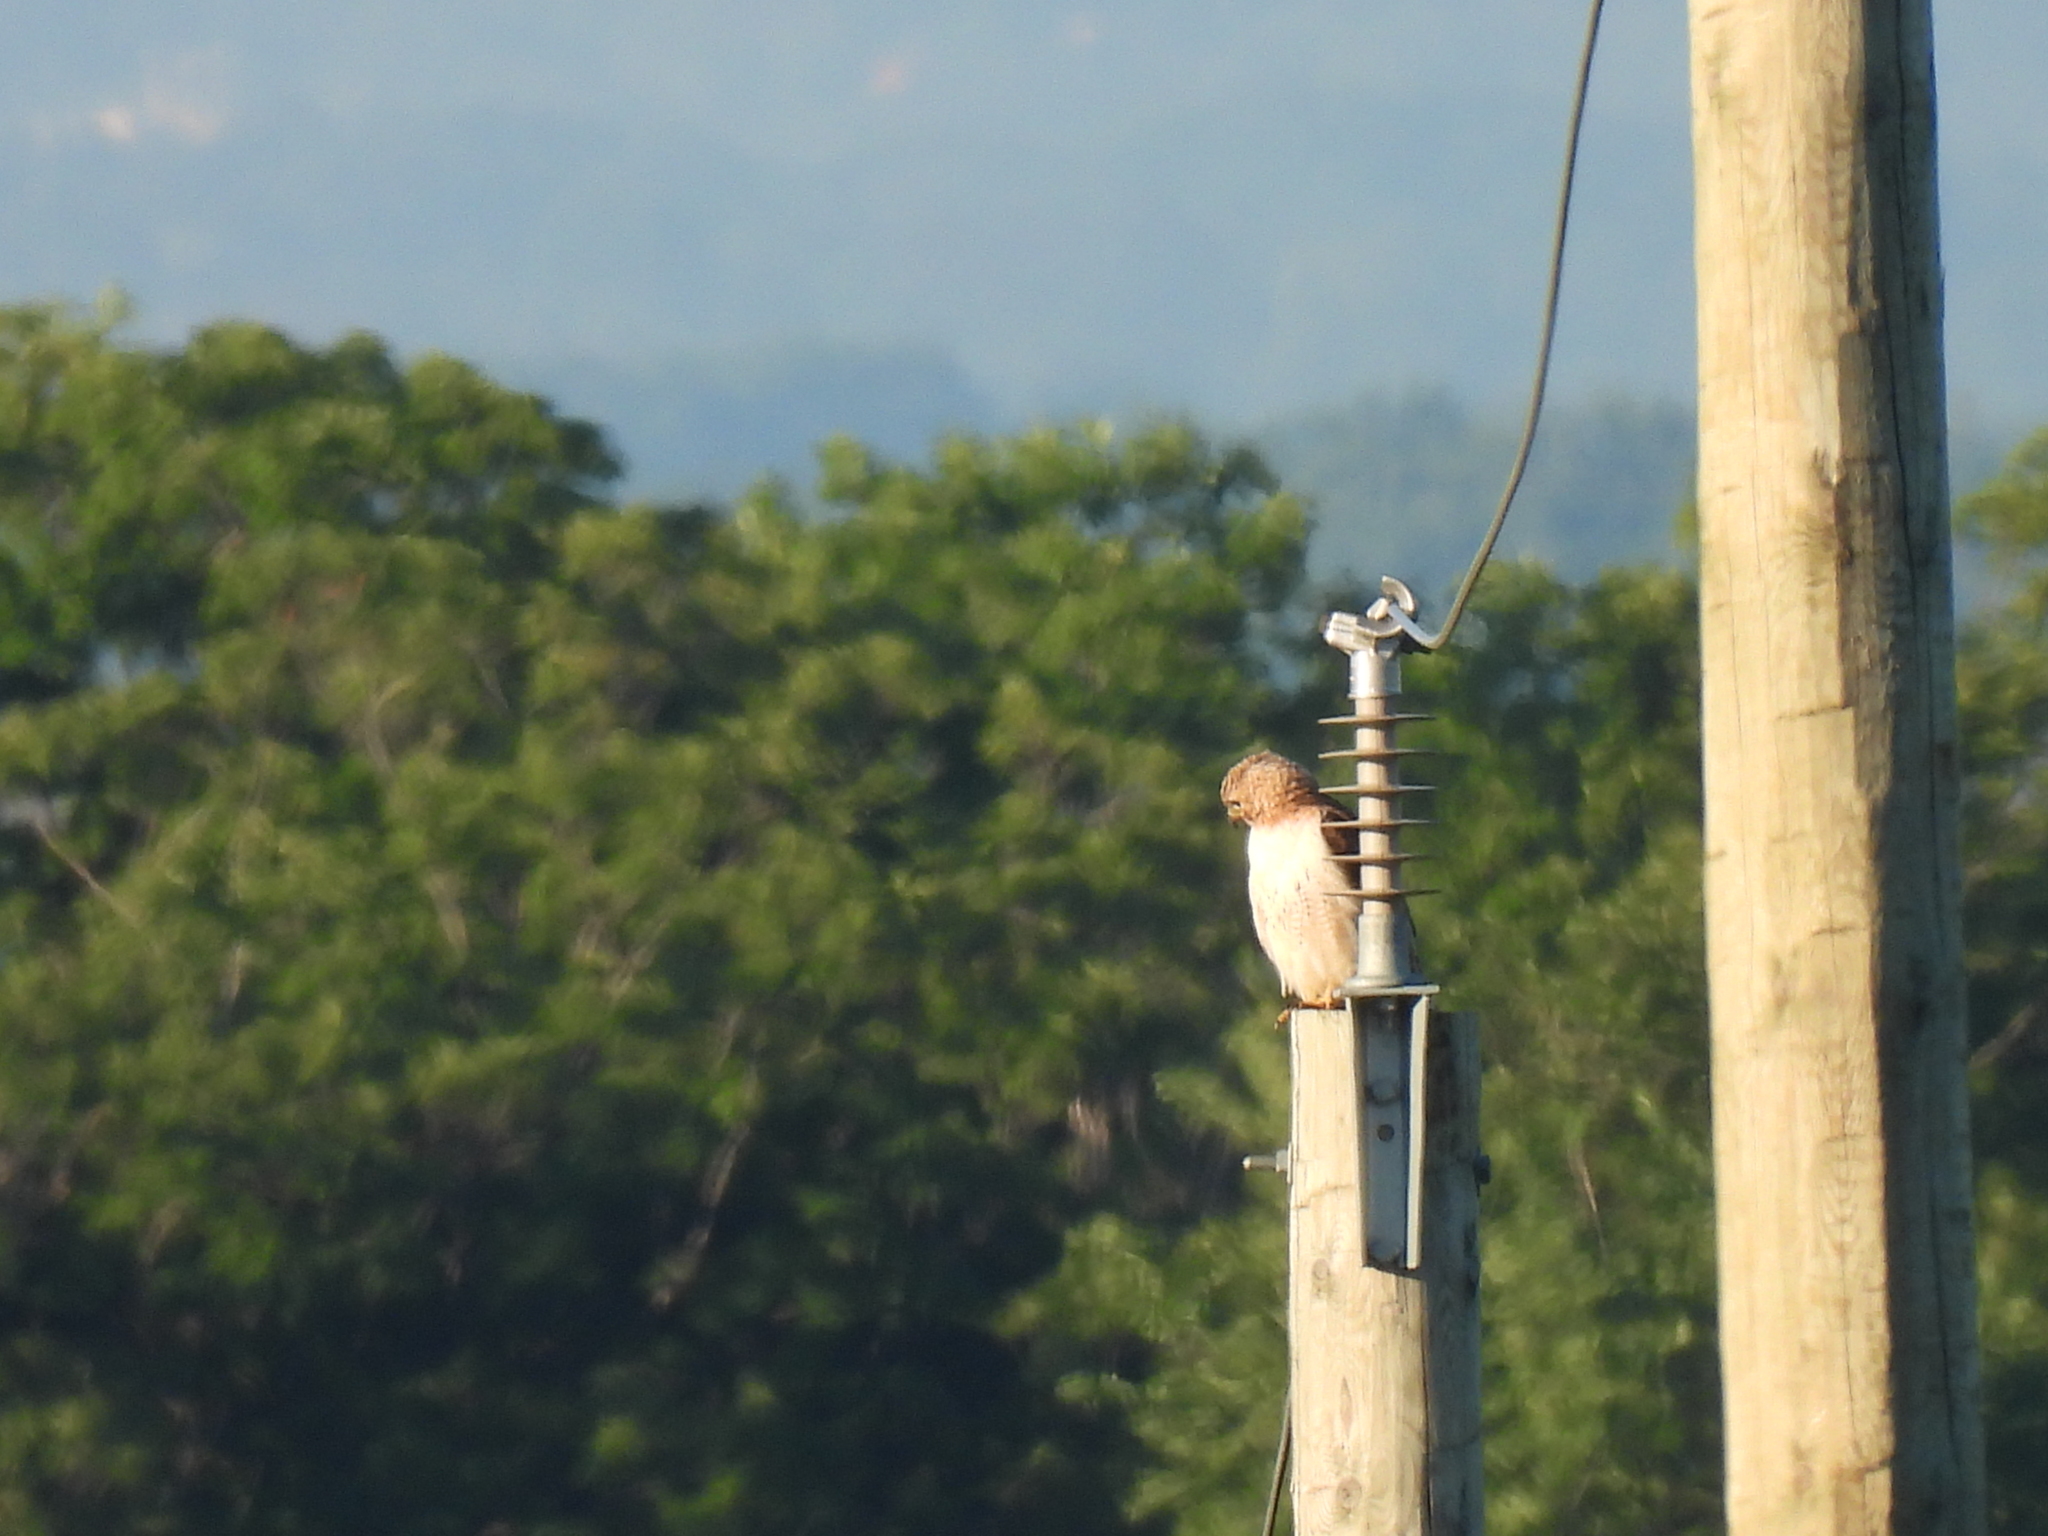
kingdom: Animalia
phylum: Chordata
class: Aves
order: Accipitriformes
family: Accipitridae
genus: Buteo
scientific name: Buteo jamaicensis
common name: Red-tailed hawk
